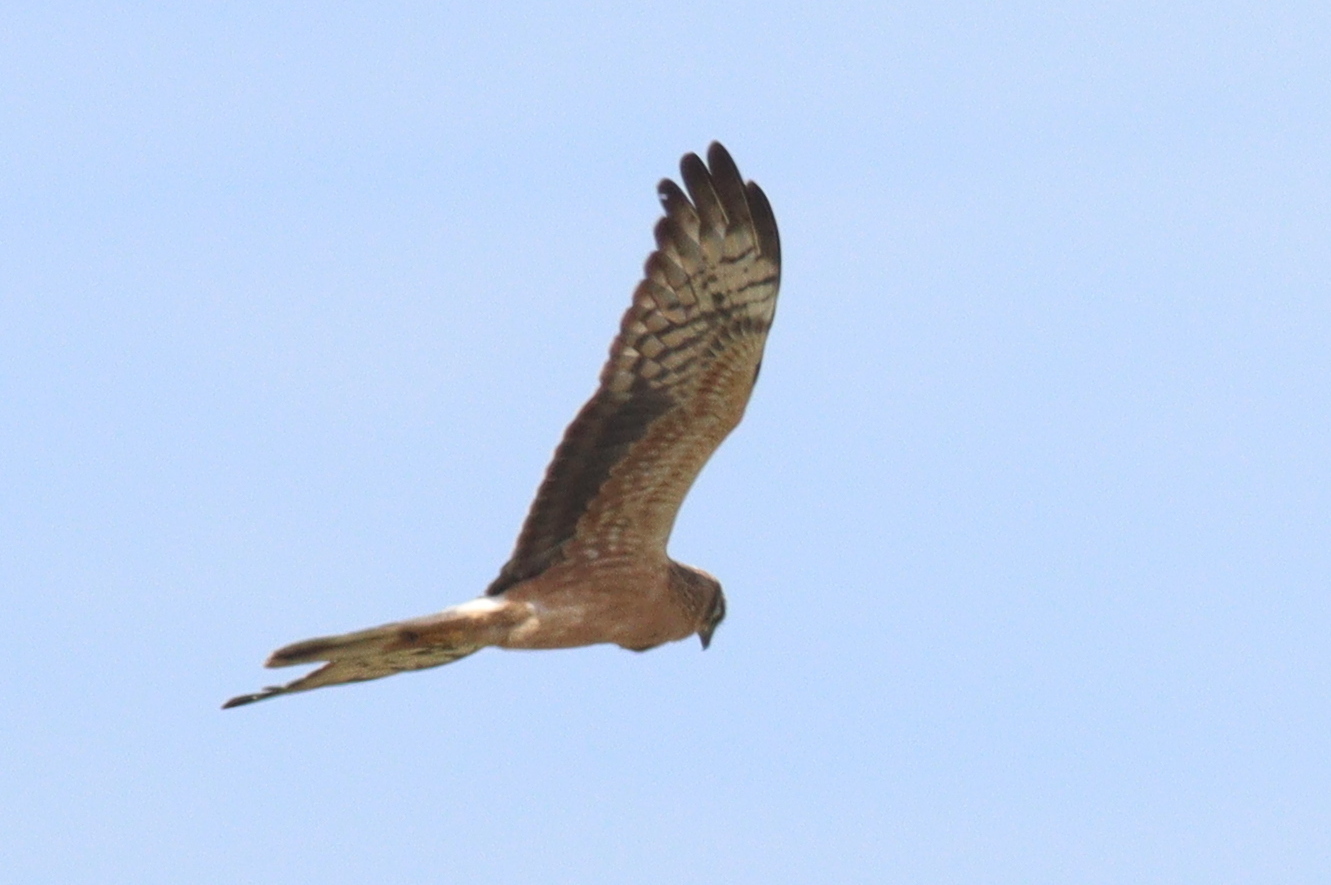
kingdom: Animalia
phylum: Chordata
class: Aves
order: Accipitriformes
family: Accipitridae
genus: Circus
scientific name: Circus pygargus
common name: Montagu's harrier
